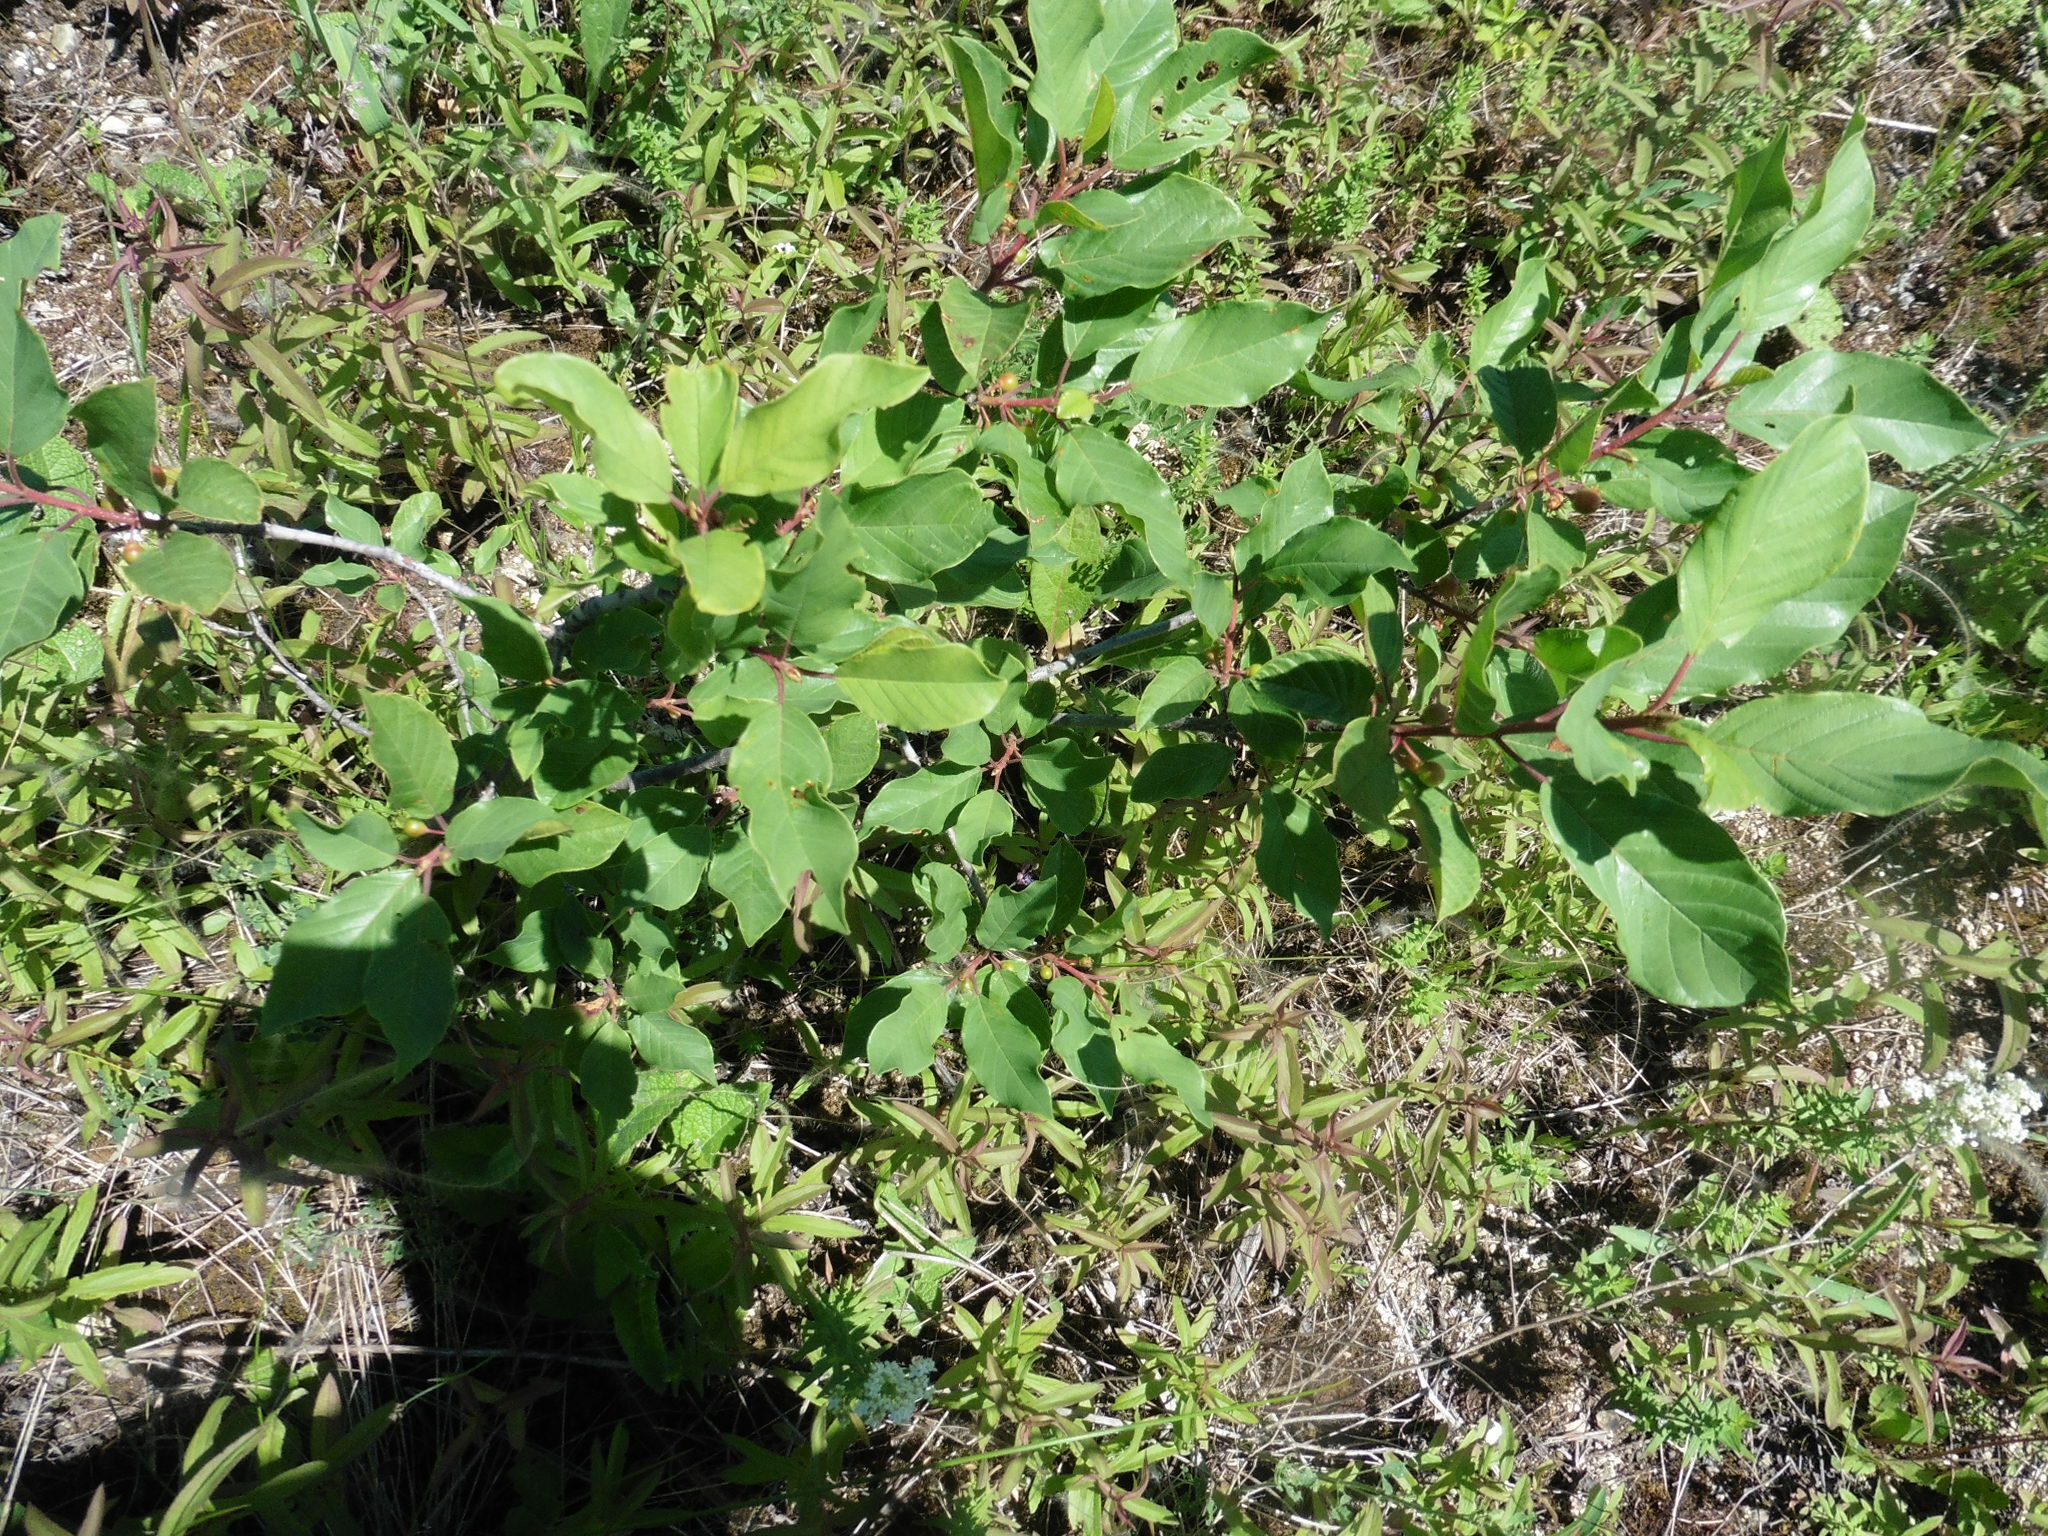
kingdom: Plantae
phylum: Tracheophyta
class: Magnoliopsida
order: Rosales
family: Rhamnaceae
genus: Frangula
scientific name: Frangula alnus
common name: Alder buckthorn
